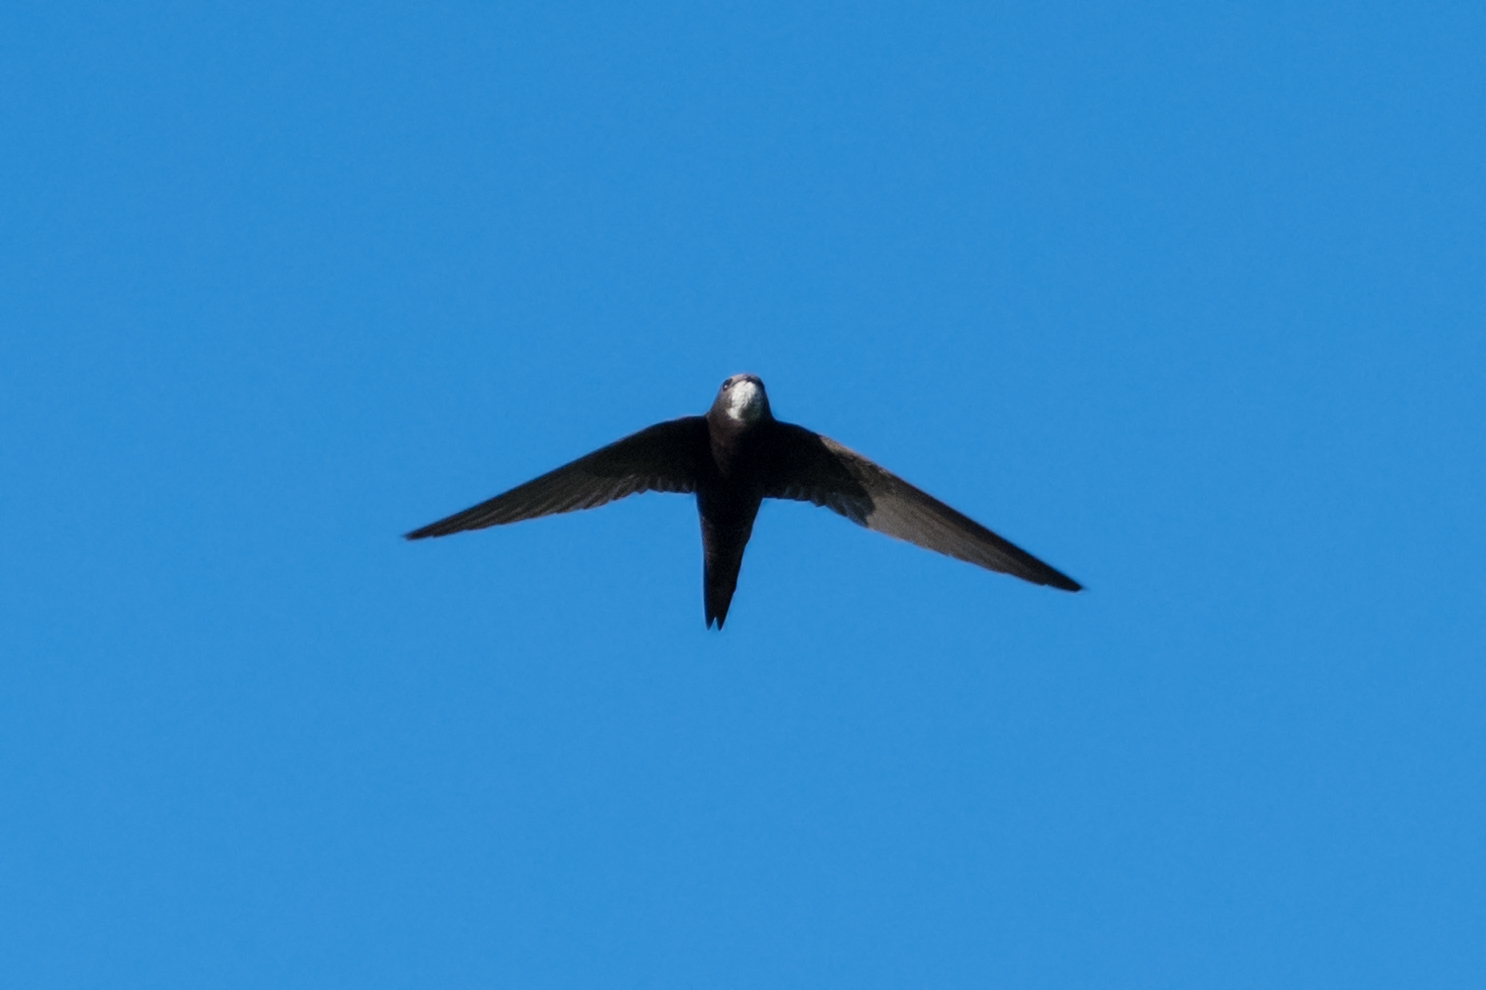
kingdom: Animalia
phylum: Chordata
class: Aves
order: Apodiformes
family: Apodidae
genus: Apus
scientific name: Apus apus
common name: Common swift
